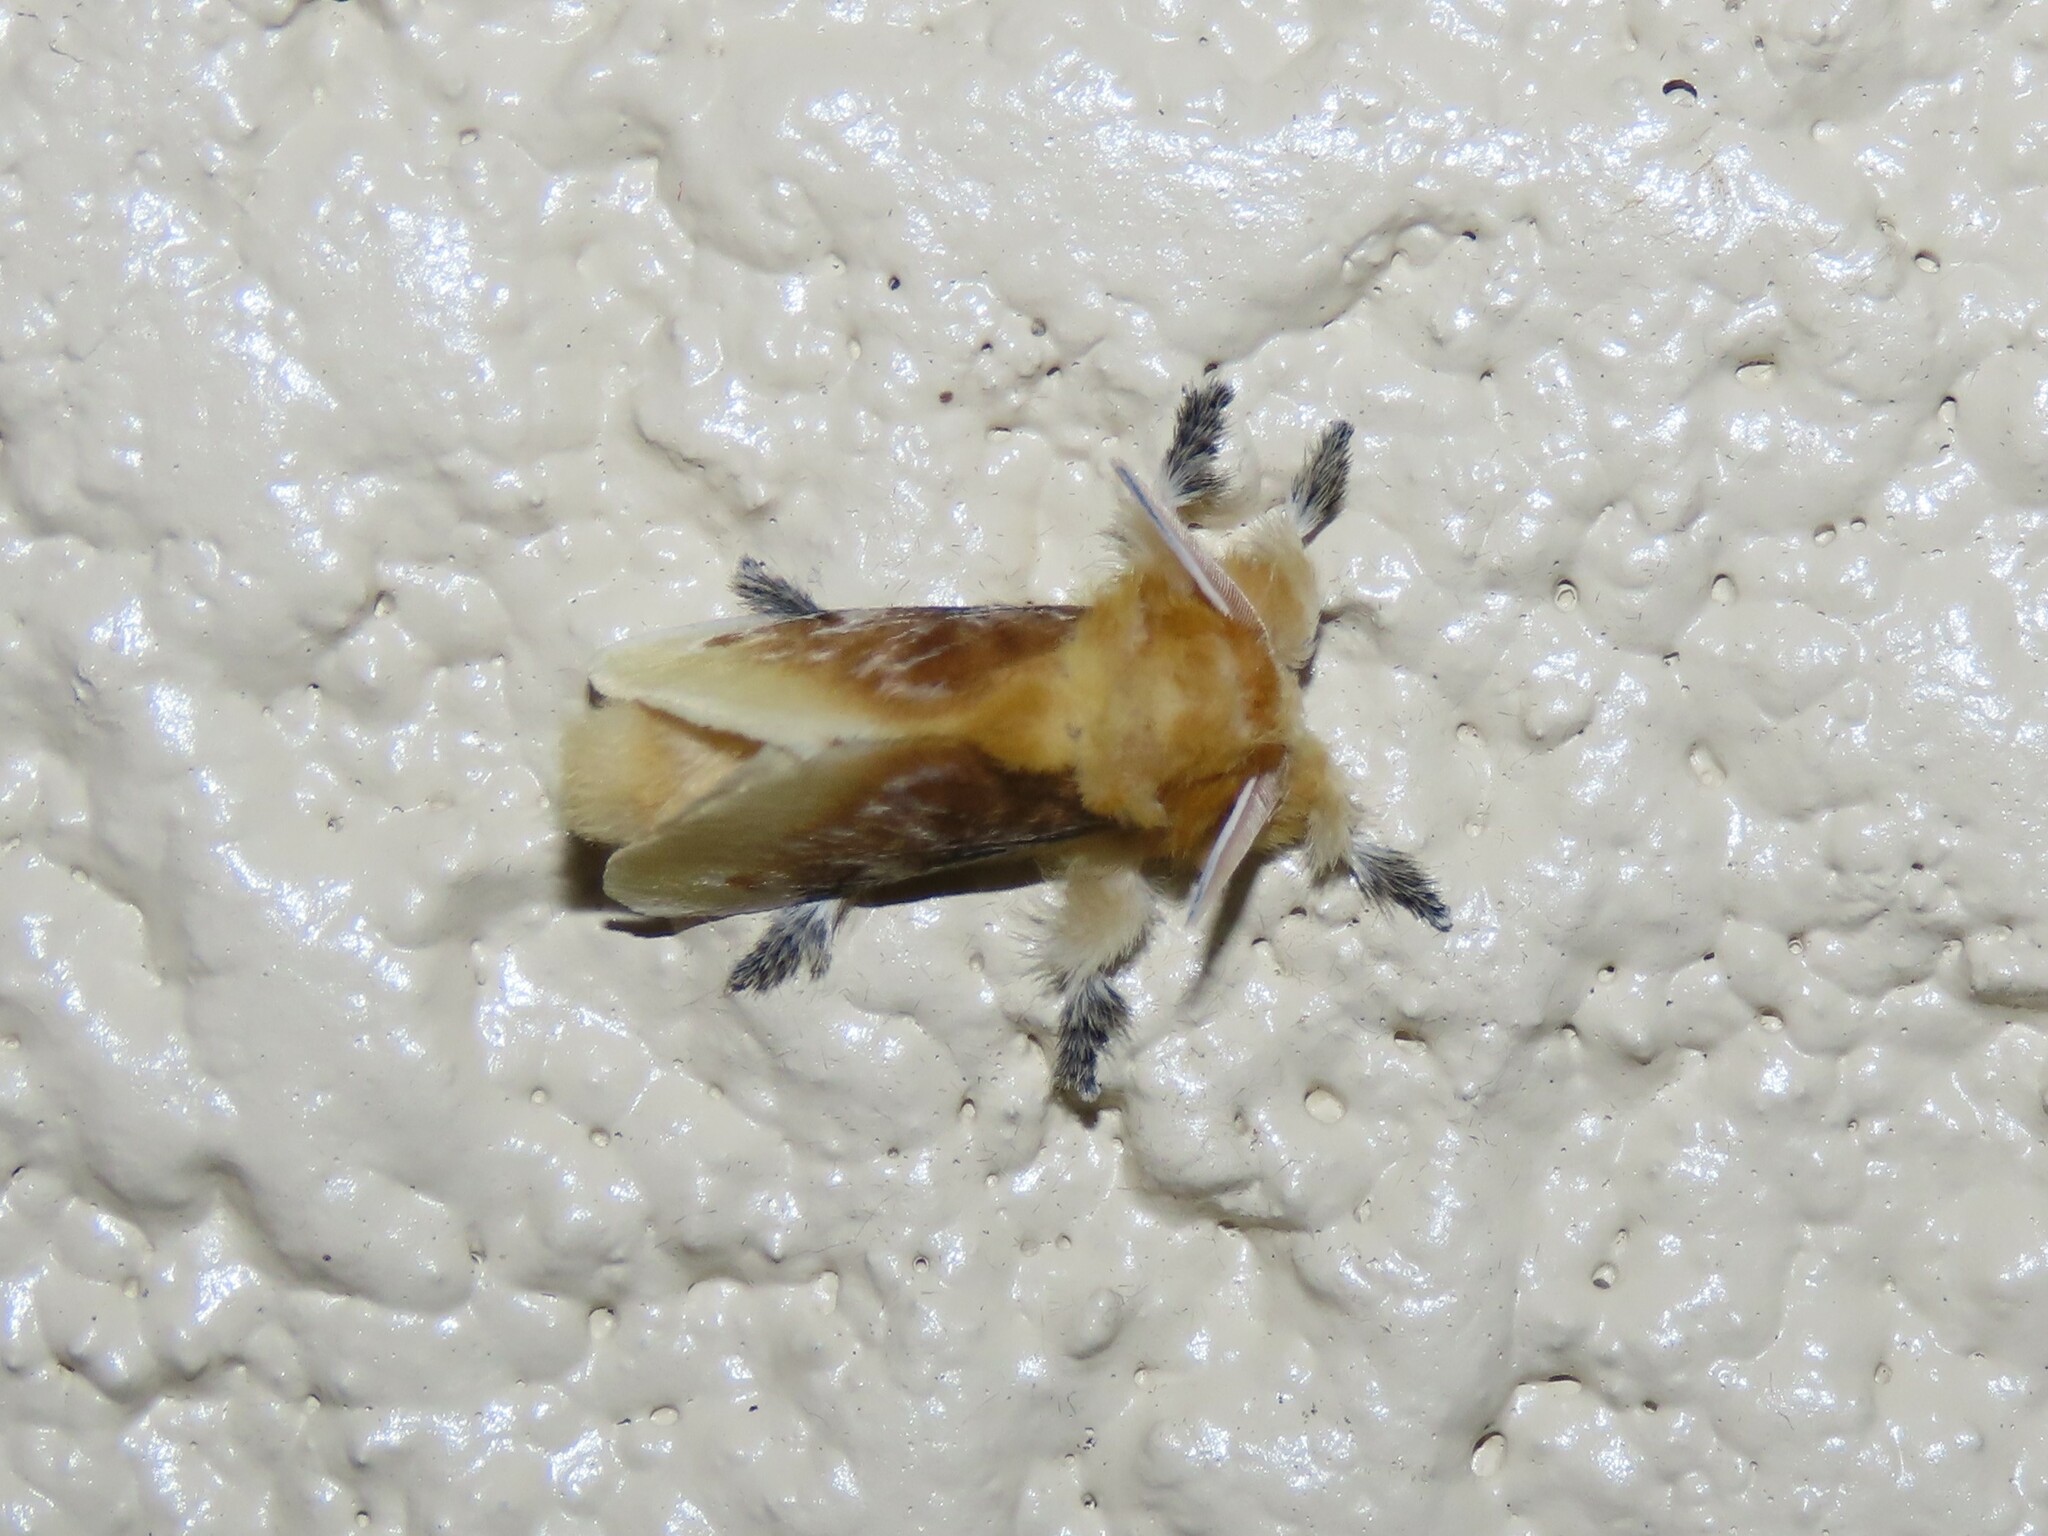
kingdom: Animalia
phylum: Arthropoda
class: Insecta
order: Lepidoptera
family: Megalopygidae
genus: Megalopyge
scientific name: Megalopyge opercularis
